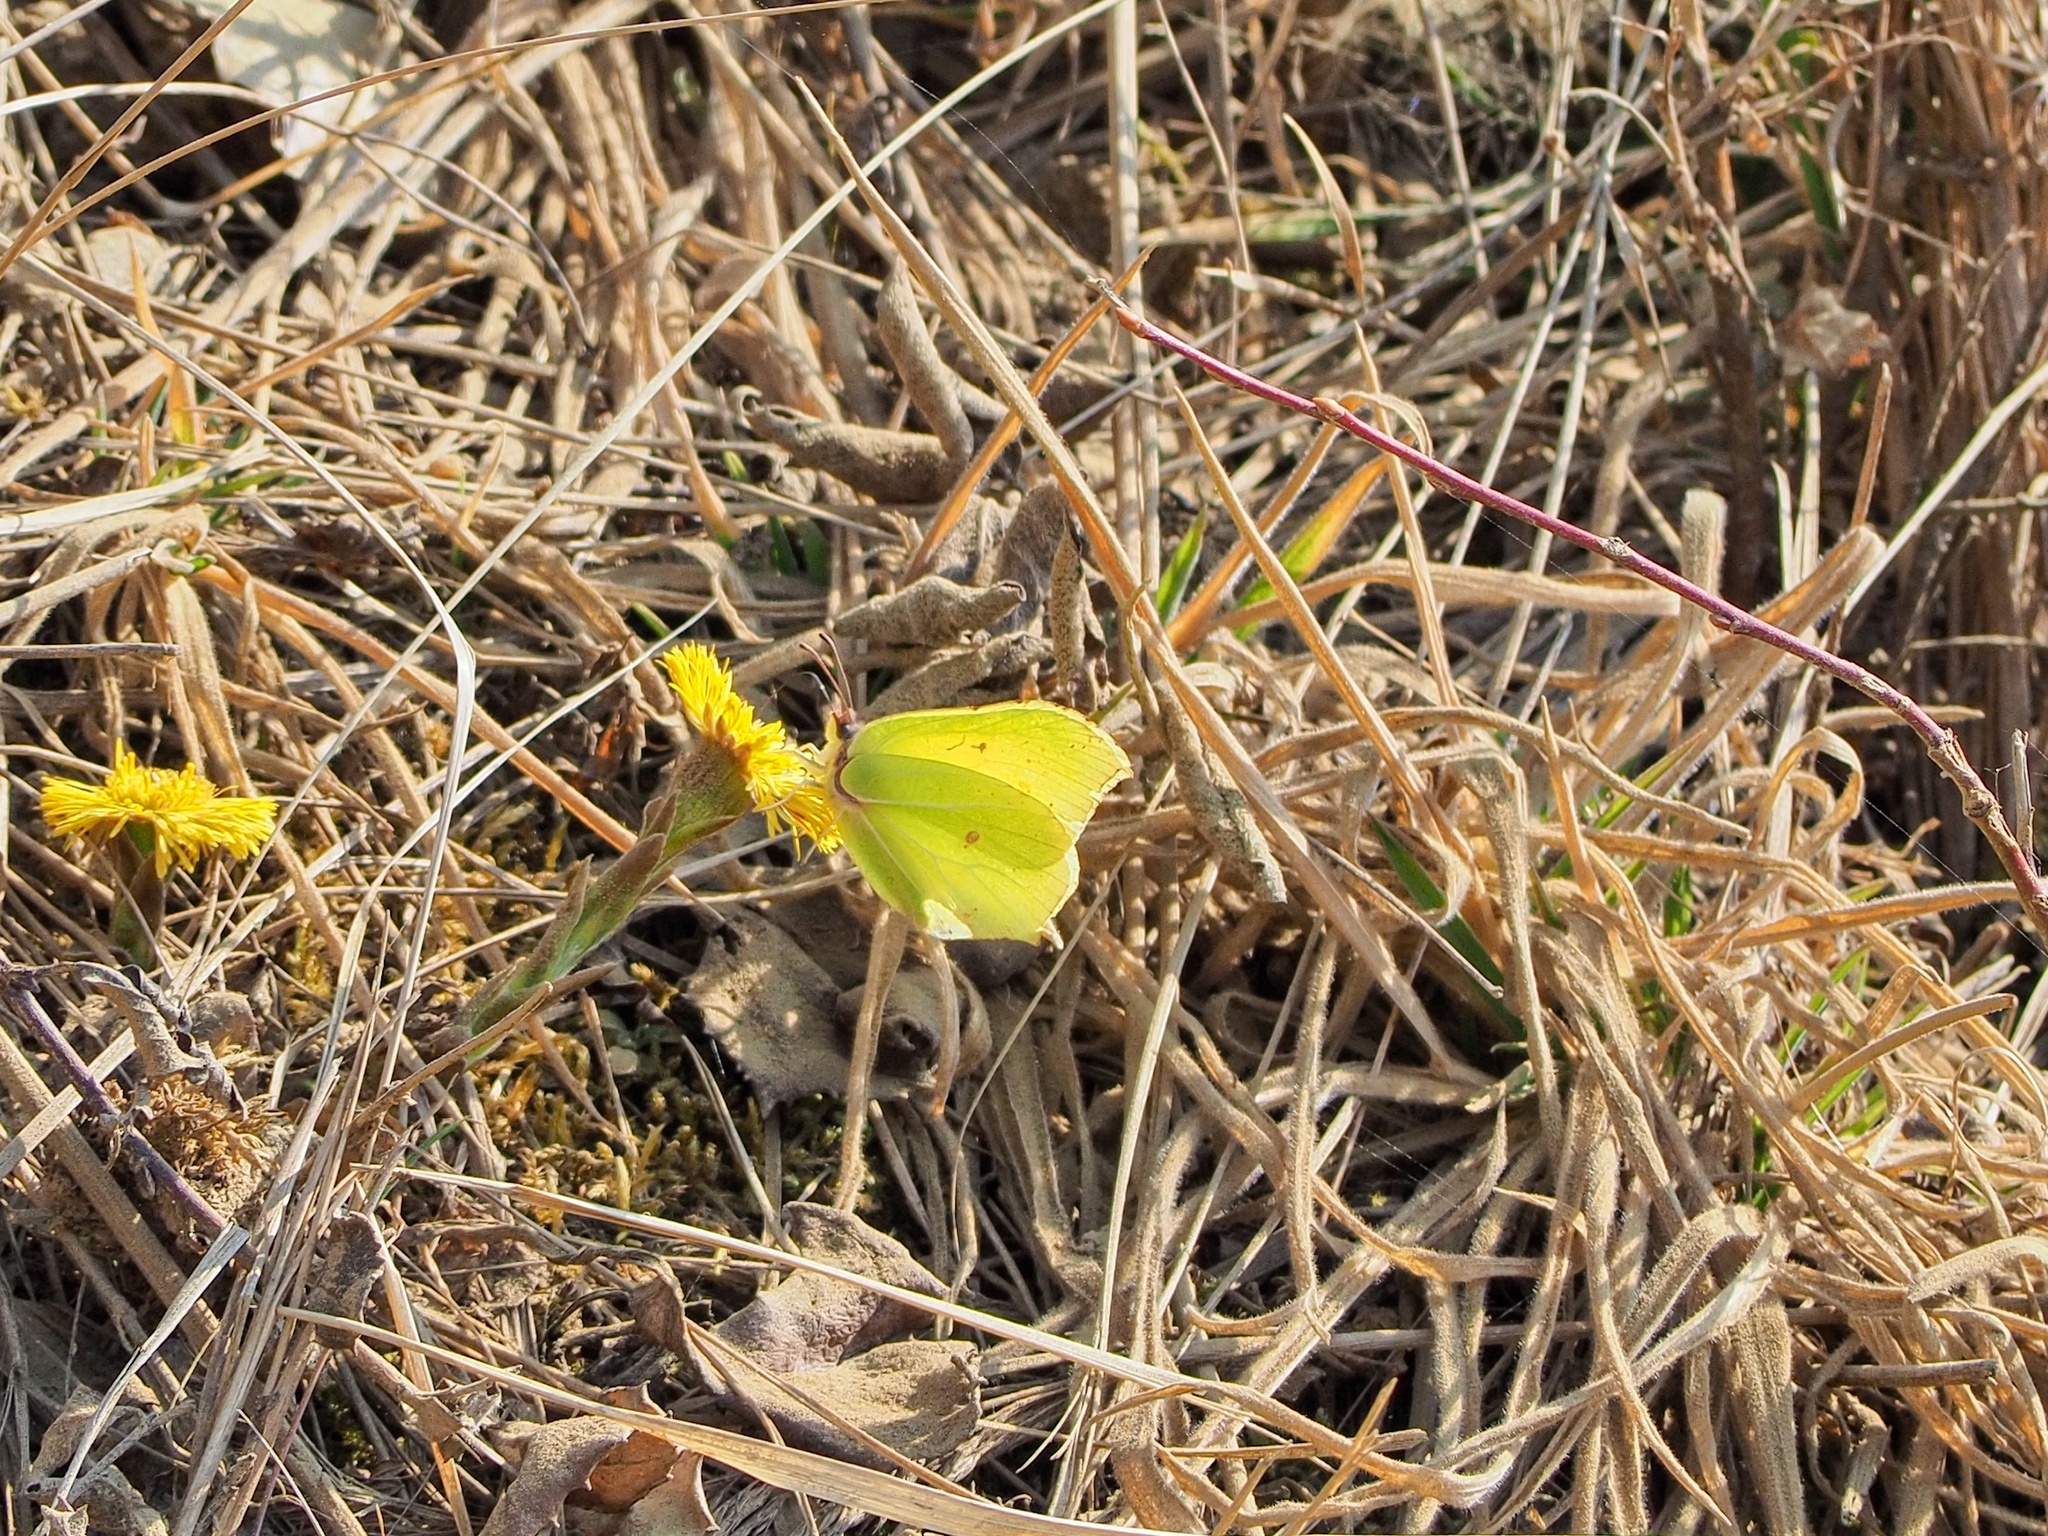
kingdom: Animalia
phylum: Arthropoda
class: Insecta
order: Lepidoptera
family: Pieridae
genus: Gonepteryx
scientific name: Gonepteryx rhamni
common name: Brimstone
